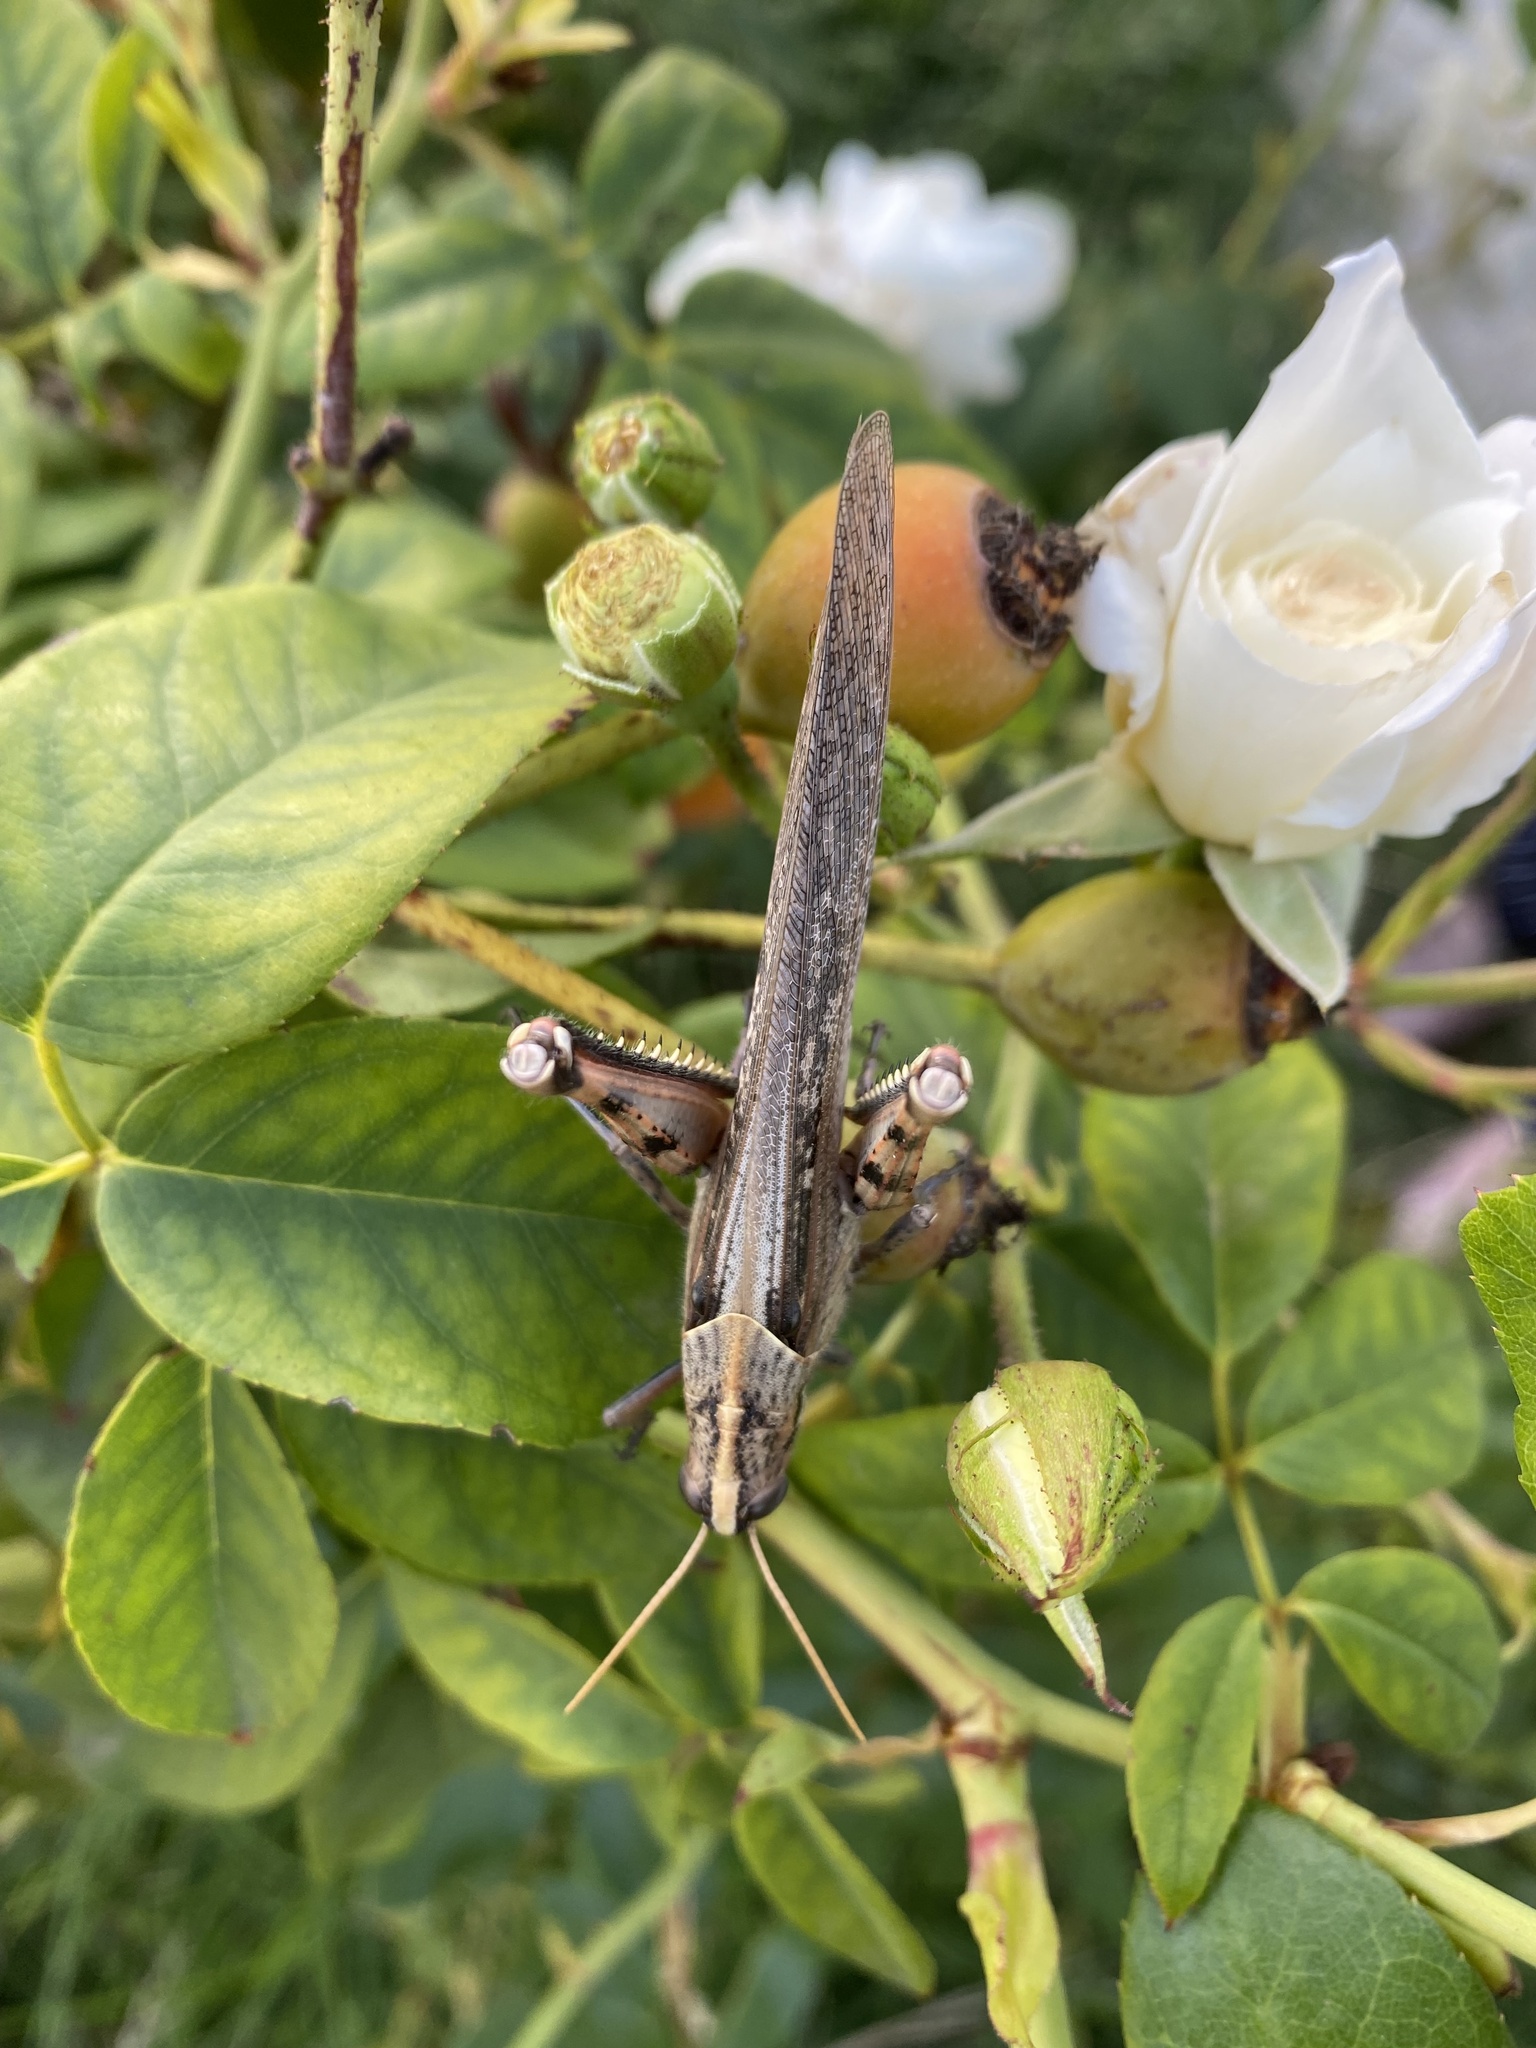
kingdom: Animalia
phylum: Arthropoda
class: Insecta
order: Orthoptera
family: Acrididae
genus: Schistocerca
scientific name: Schistocerca nitens
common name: Vagrant grasshopper
